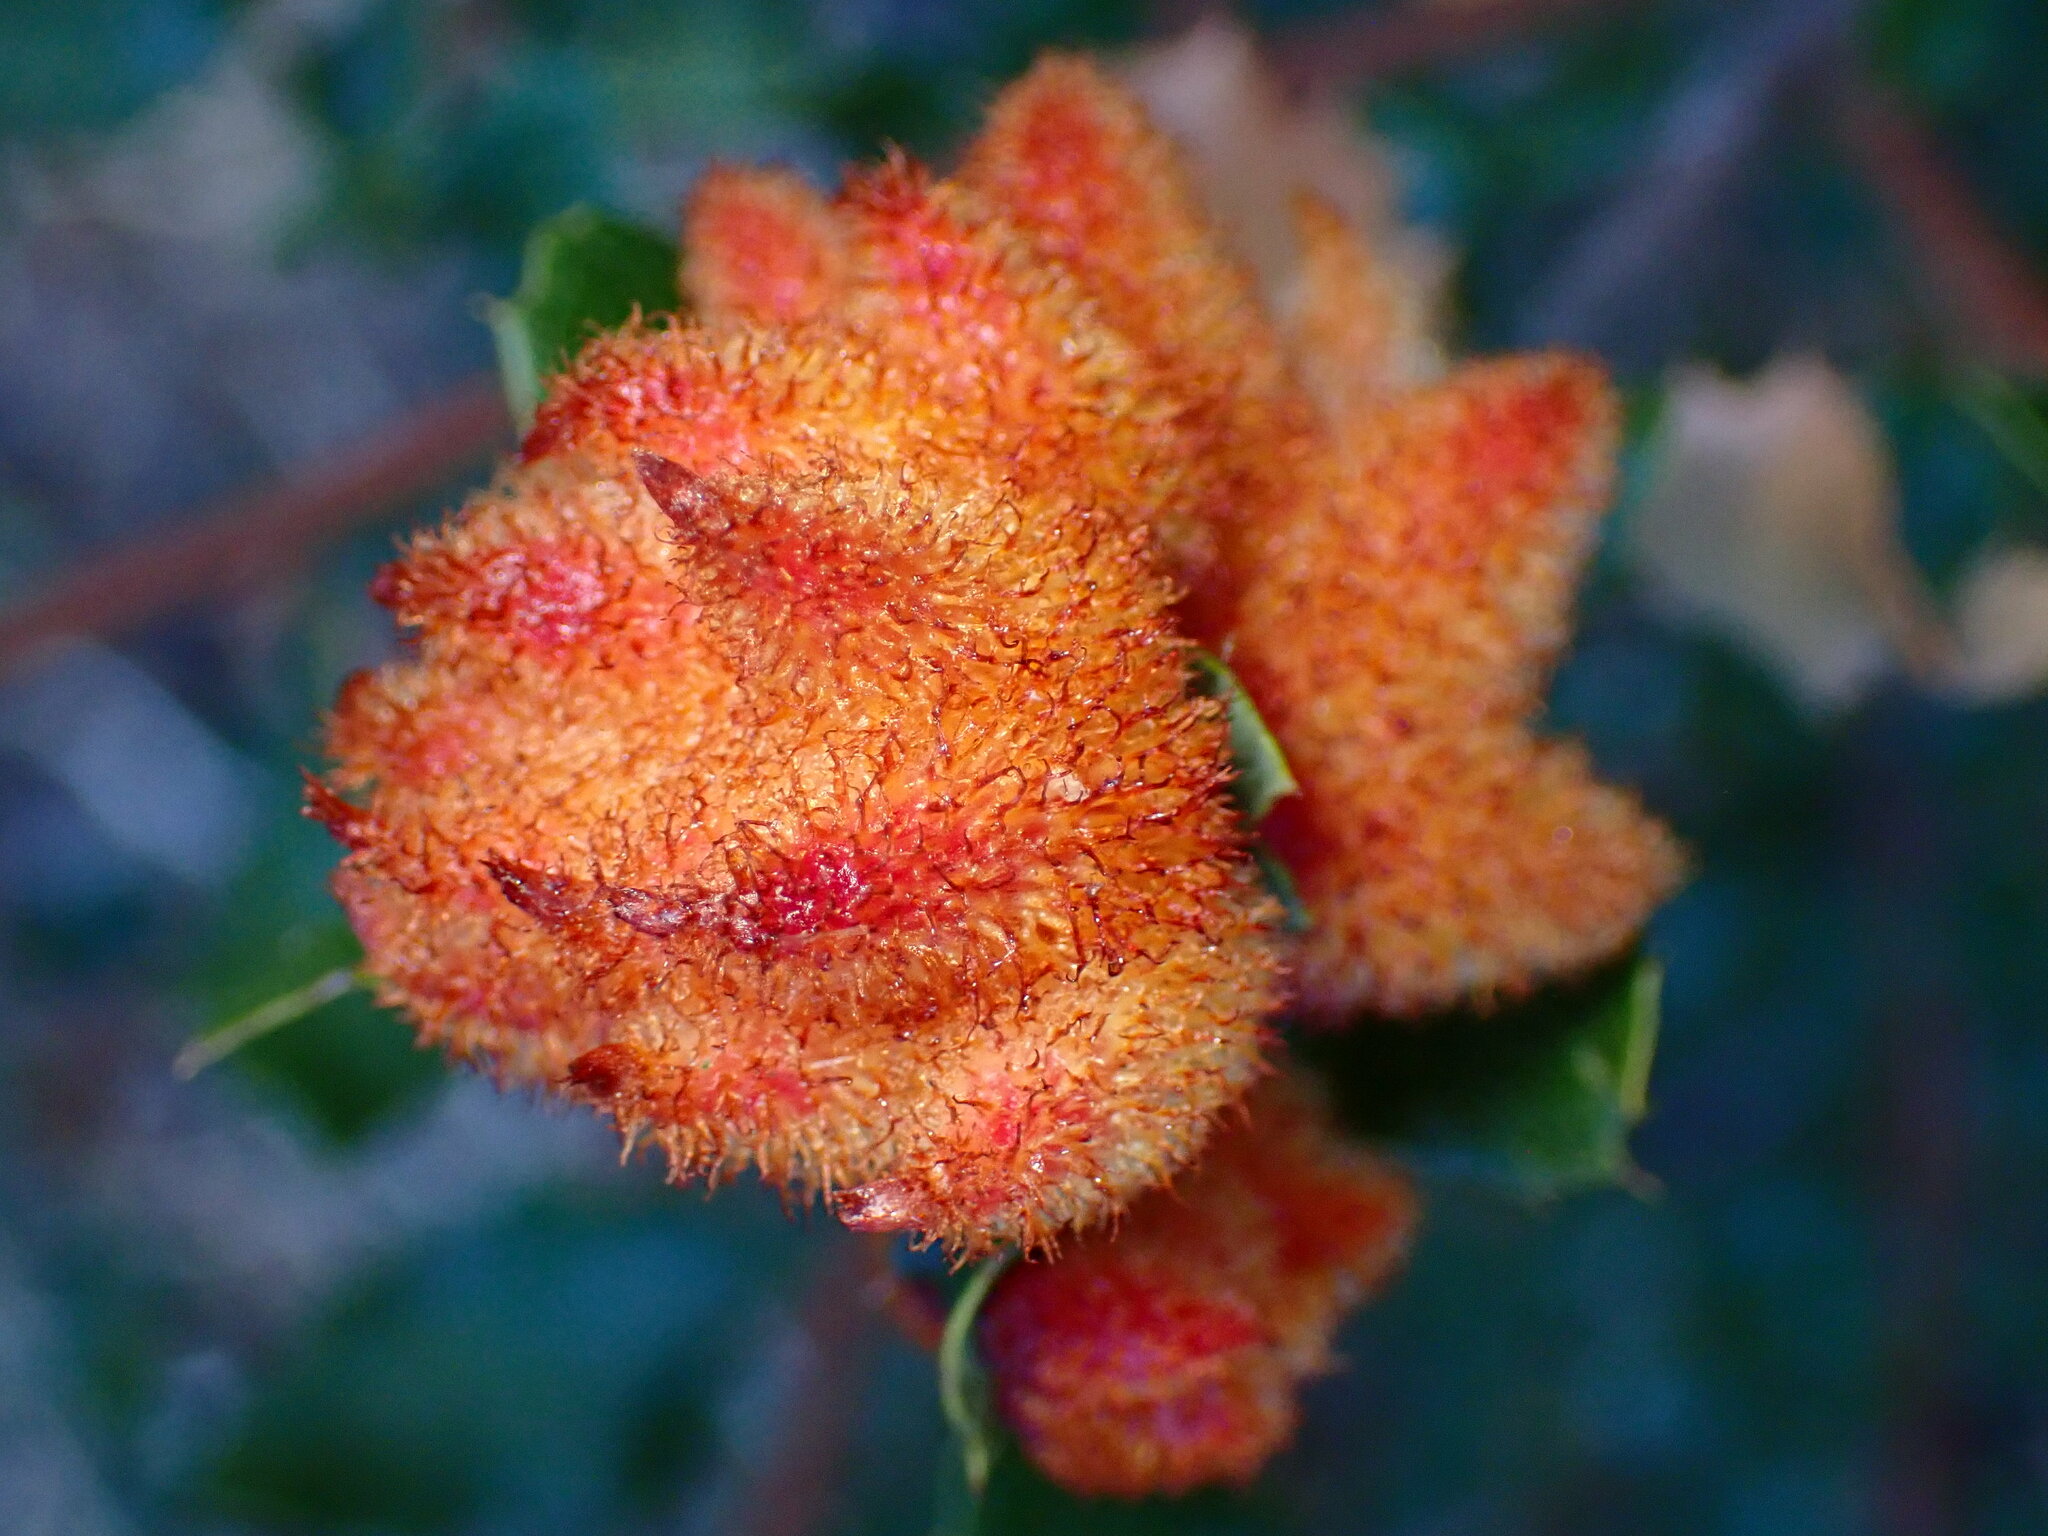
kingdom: Animalia
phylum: Arthropoda
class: Insecta
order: Hymenoptera
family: Cynipidae
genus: Andricus
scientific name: Andricus
